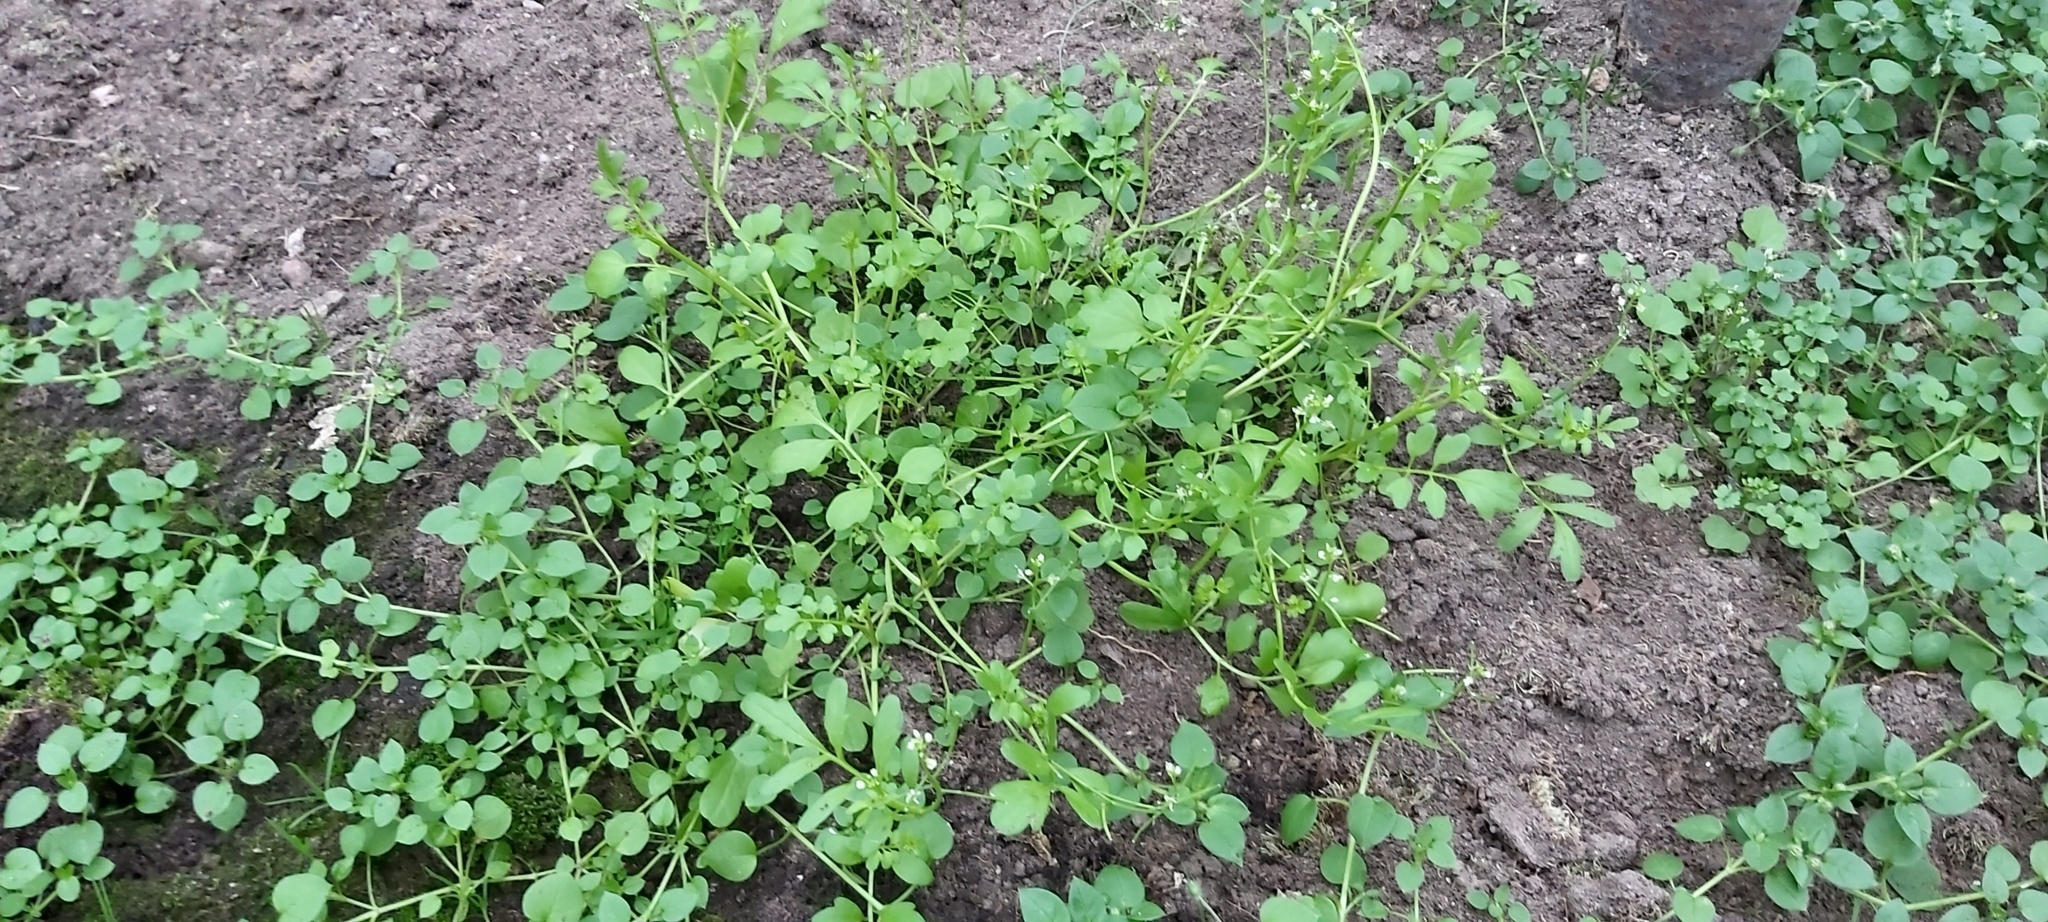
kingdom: Plantae
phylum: Tracheophyta
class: Magnoliopsida
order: Brassicales
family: Brassicaceae
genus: Cardamine
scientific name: Cardamine pratensis
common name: Cuckoo flower
